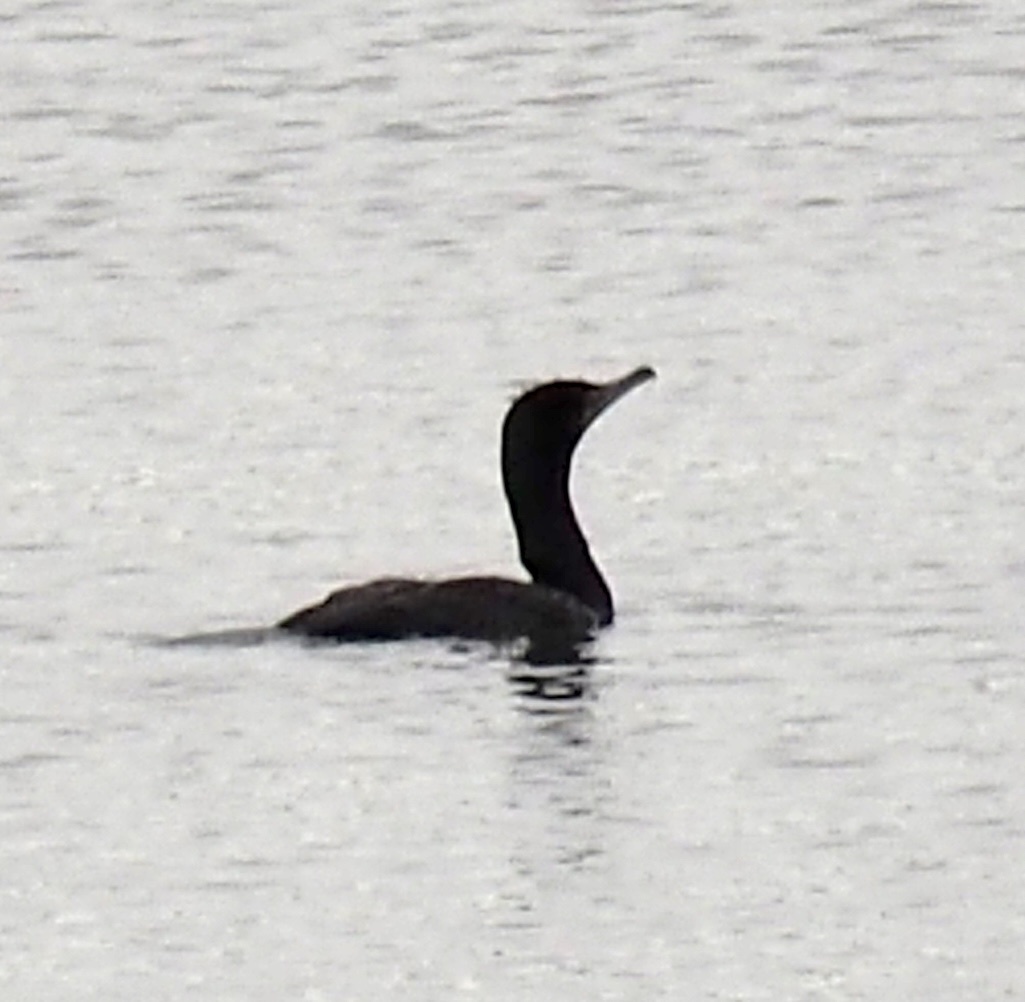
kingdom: Animalia
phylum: Chordata
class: Aves
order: Suliformes
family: Phalacrocoracidae
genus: Phalacrocorax
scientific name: Phalacrocorax auritus
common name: Double-crested cormorant
